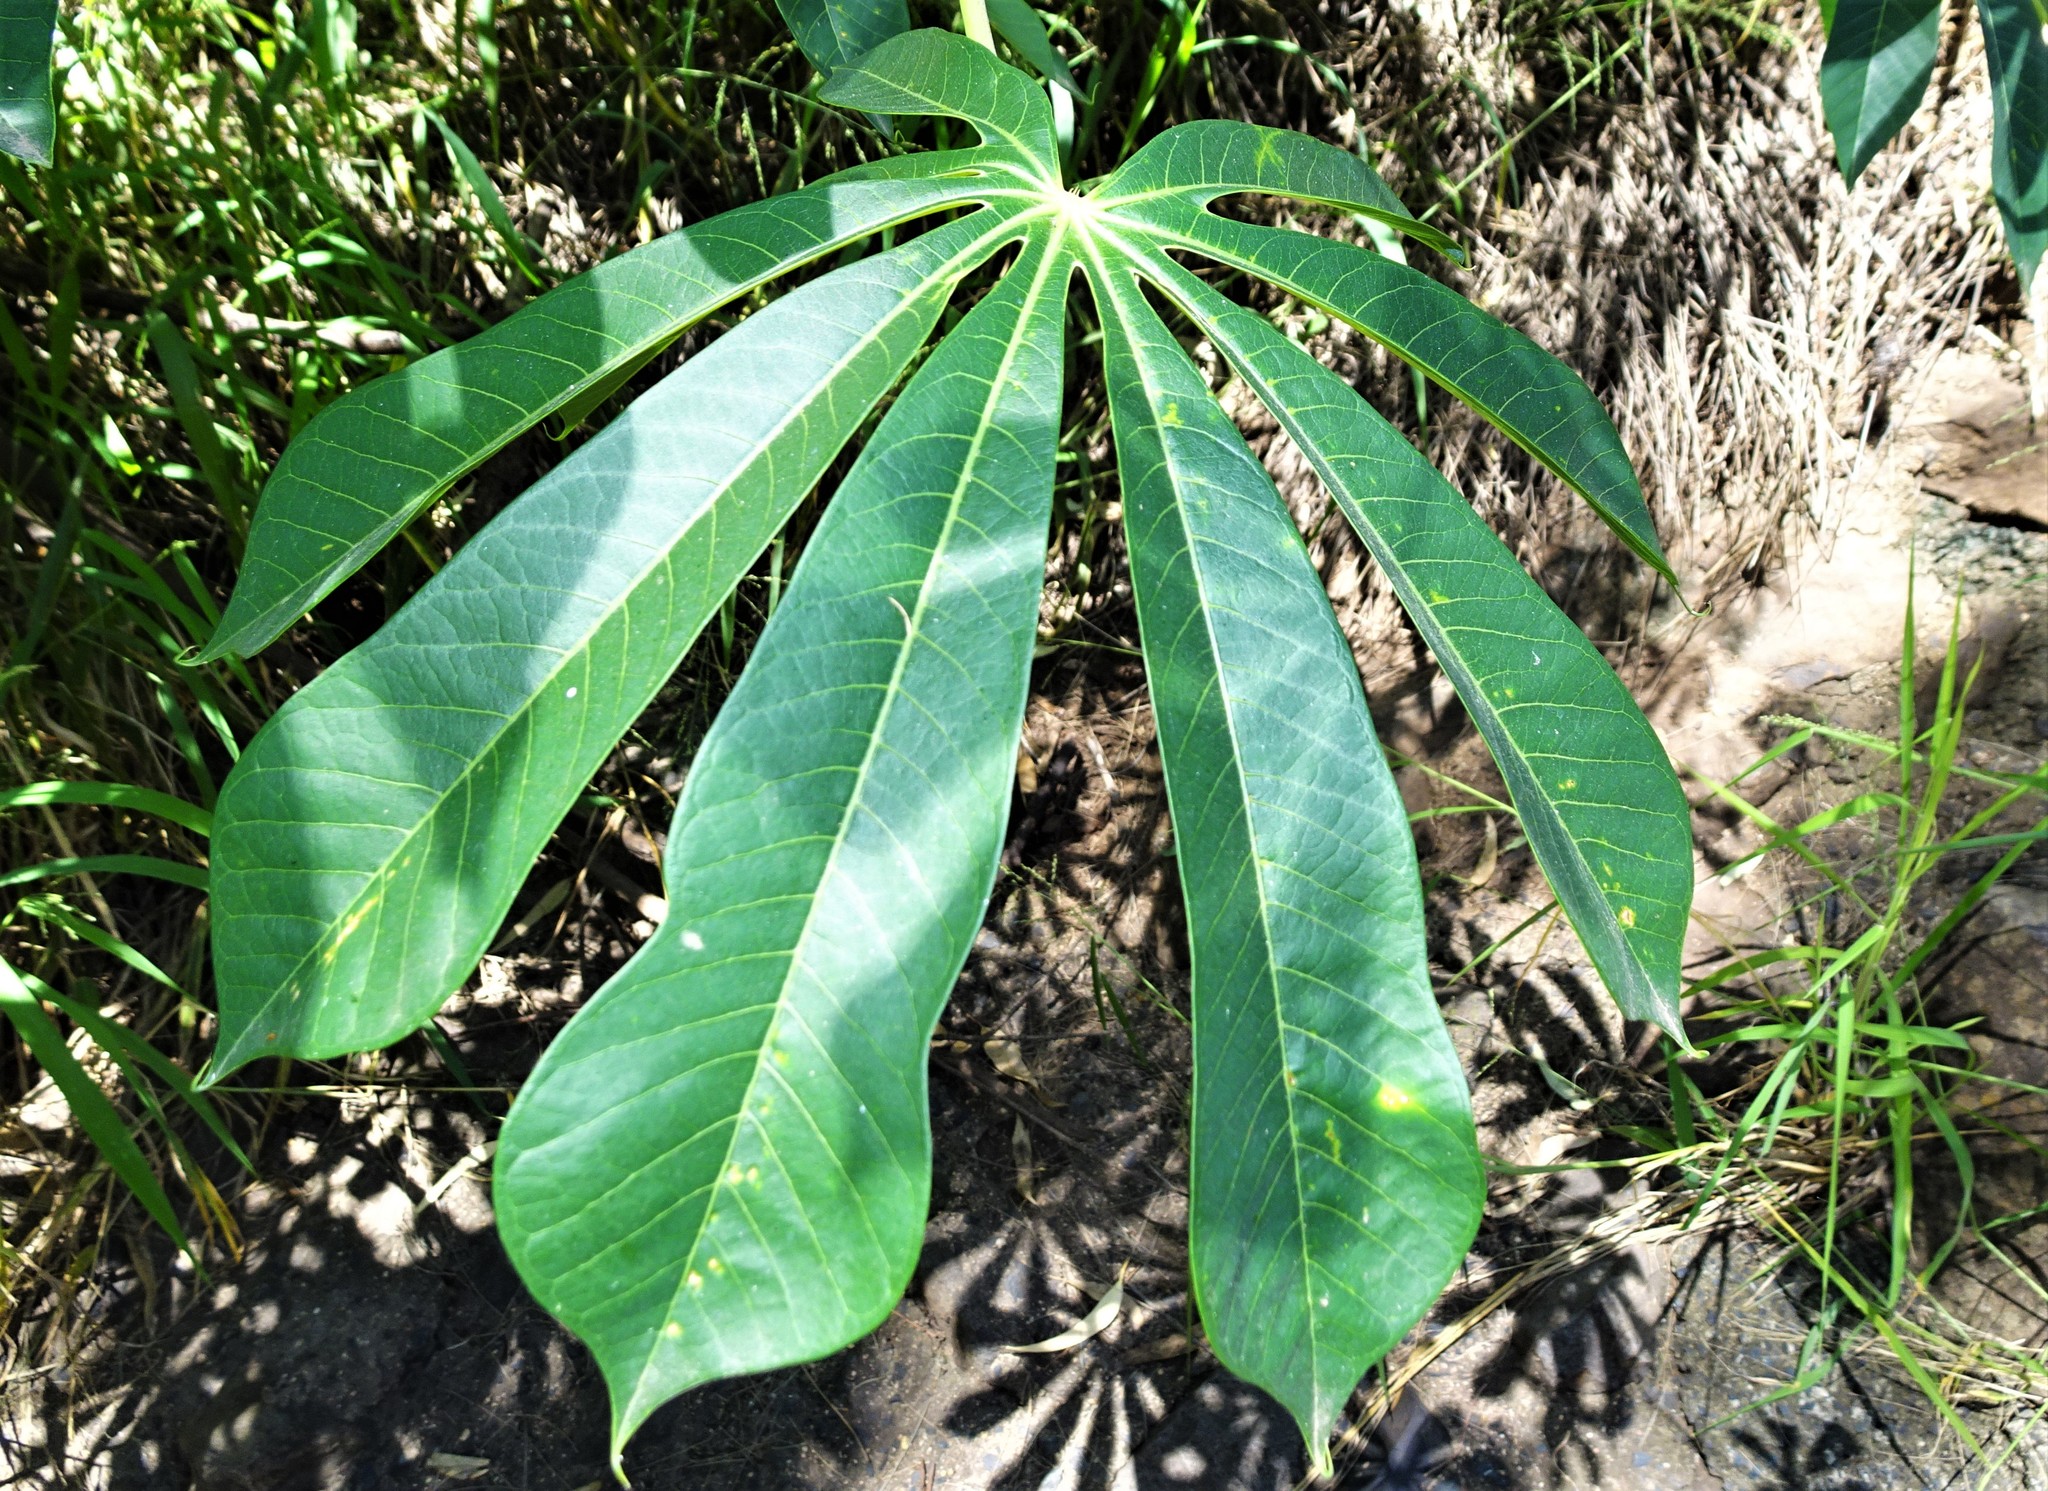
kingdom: Plantae
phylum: Tracheophyta
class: Magnoliopsida
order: Malpighiales
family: Euphorbiaceae
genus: Manihot
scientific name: Manihot grahamii
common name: Graham's manihot
